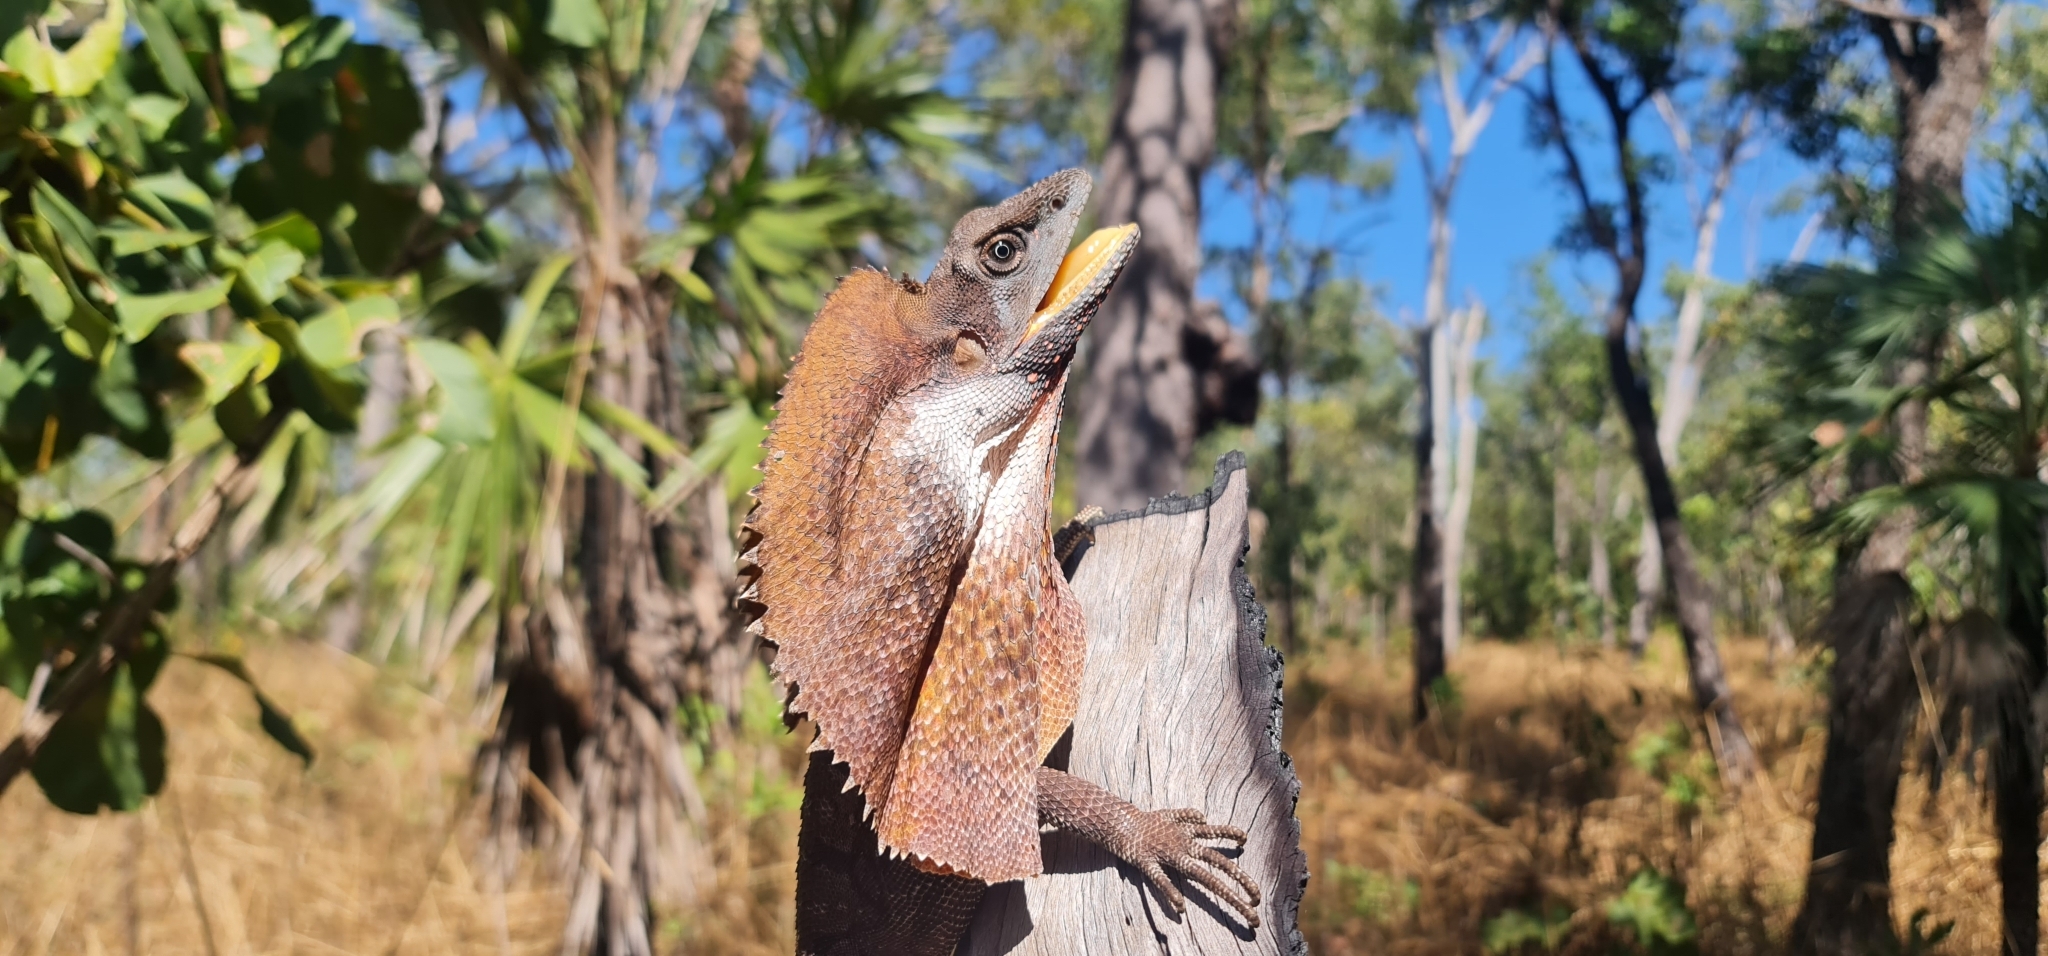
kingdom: Animalia
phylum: Chordata
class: Squamata
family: Agamidae
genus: Chlamydosaurus
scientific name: Chlamydosaurus kingii
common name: Frilled lizard
